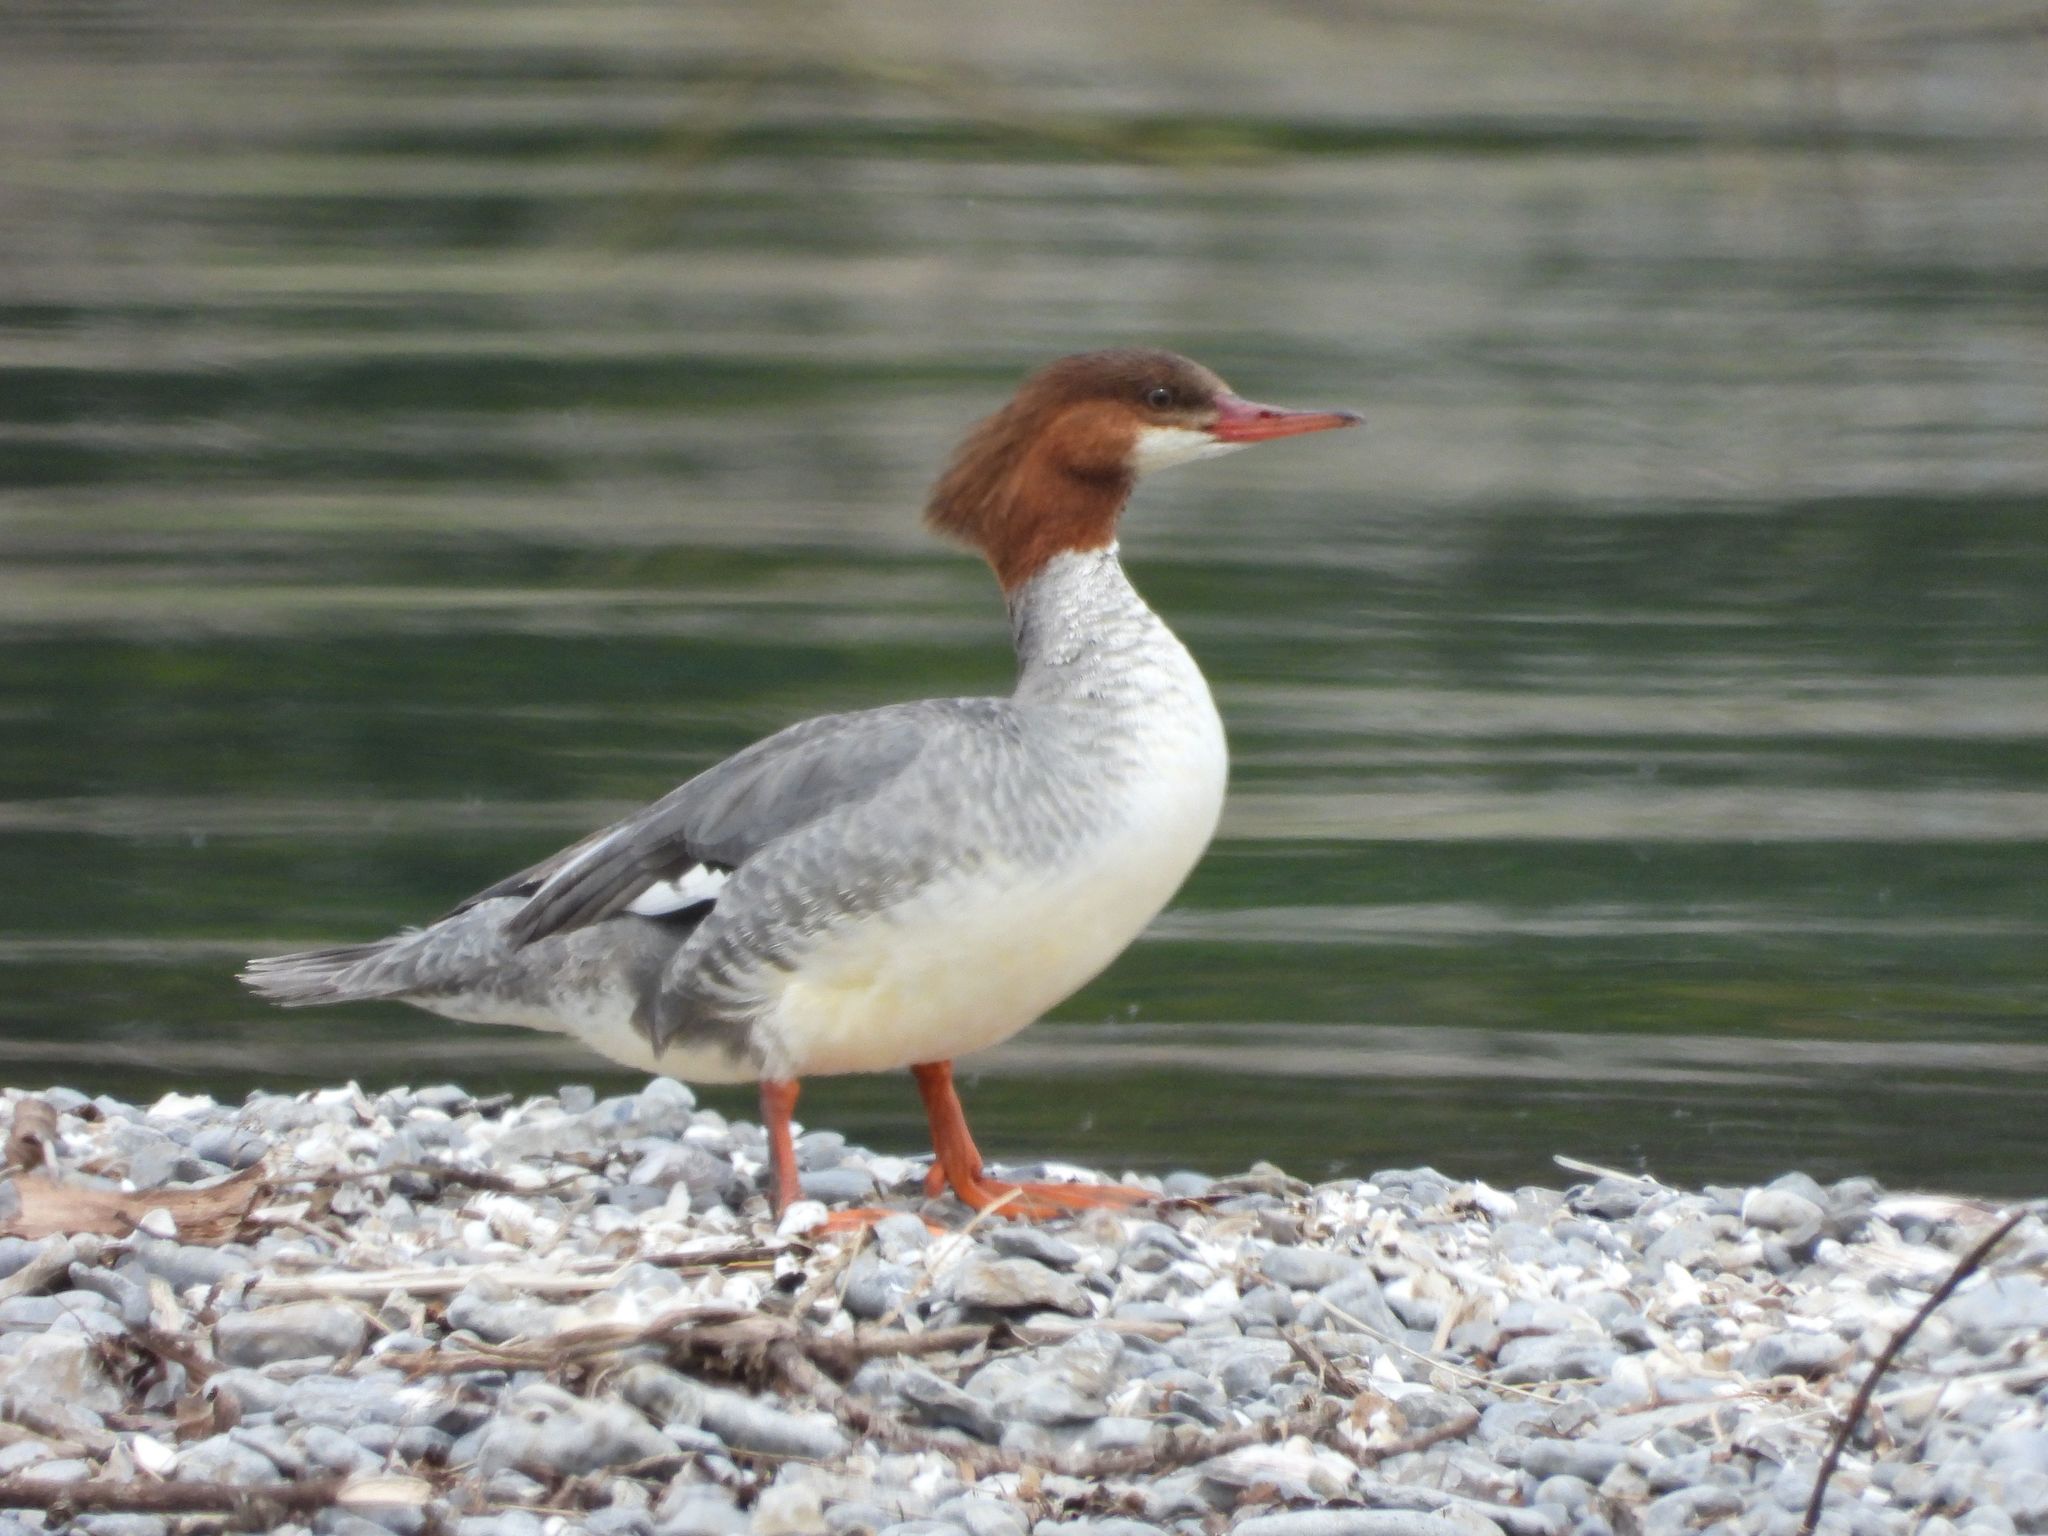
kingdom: Animalia
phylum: Chordata
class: Aves
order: Anseriformes
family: Anatidae
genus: Mergus
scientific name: Mergus merganser
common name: Common merganser
